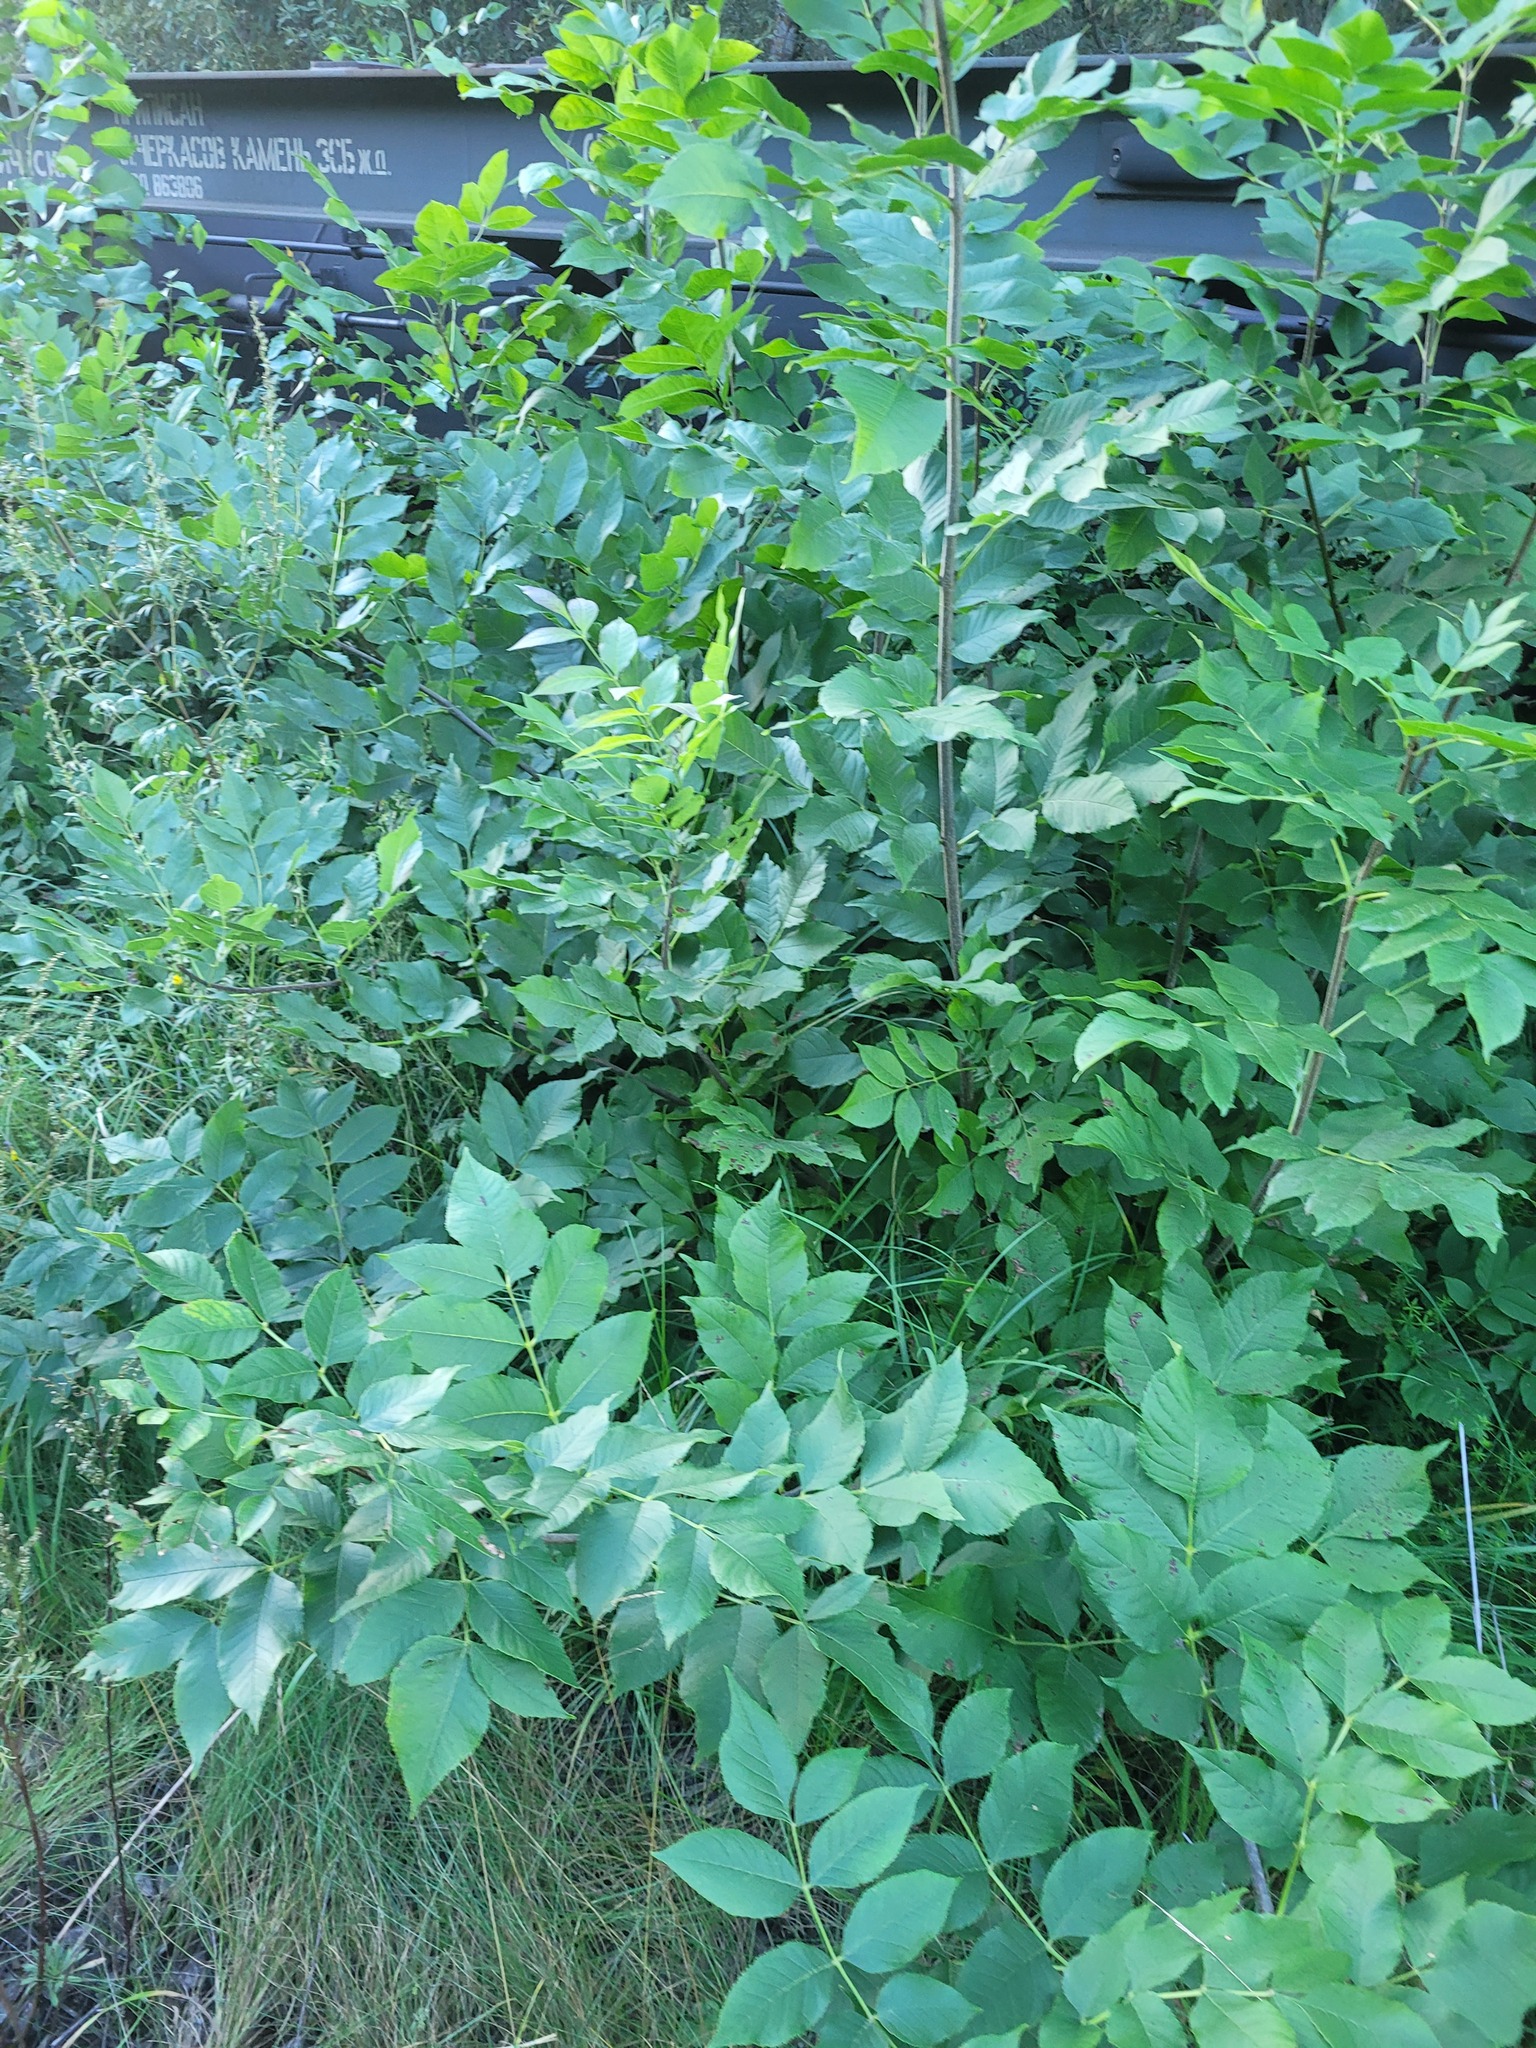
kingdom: Plantae
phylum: Tracheophyta
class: Magnoliopsida
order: Lamiales
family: Oleaceae
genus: Fraxinus
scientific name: Fraxinus pennsylvanica
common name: Green ash
